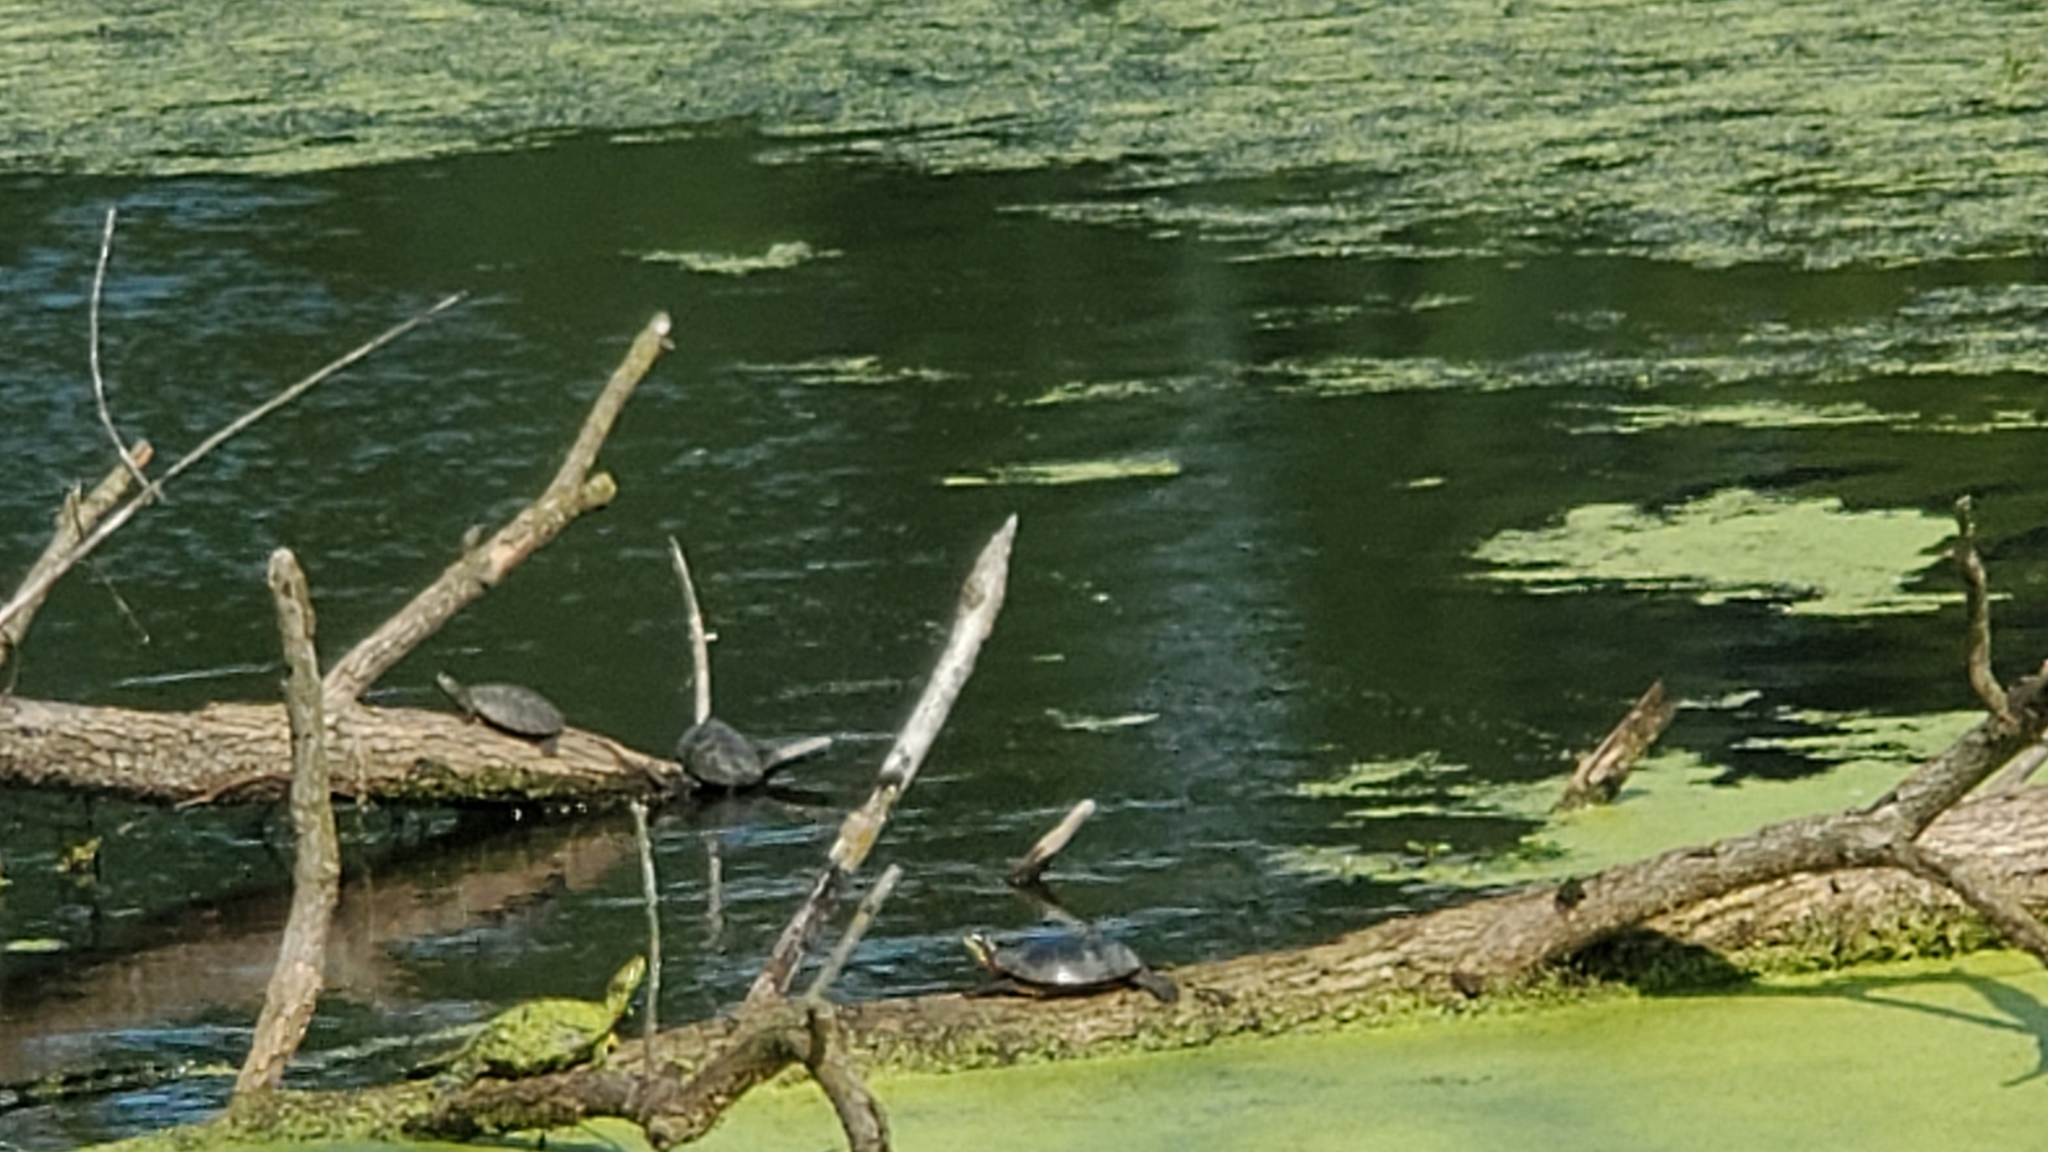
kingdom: Animalia
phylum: Chordata
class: Testudines
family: Emydidae
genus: Chrysemys
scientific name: Chrysemys picta
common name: Painted turtle
